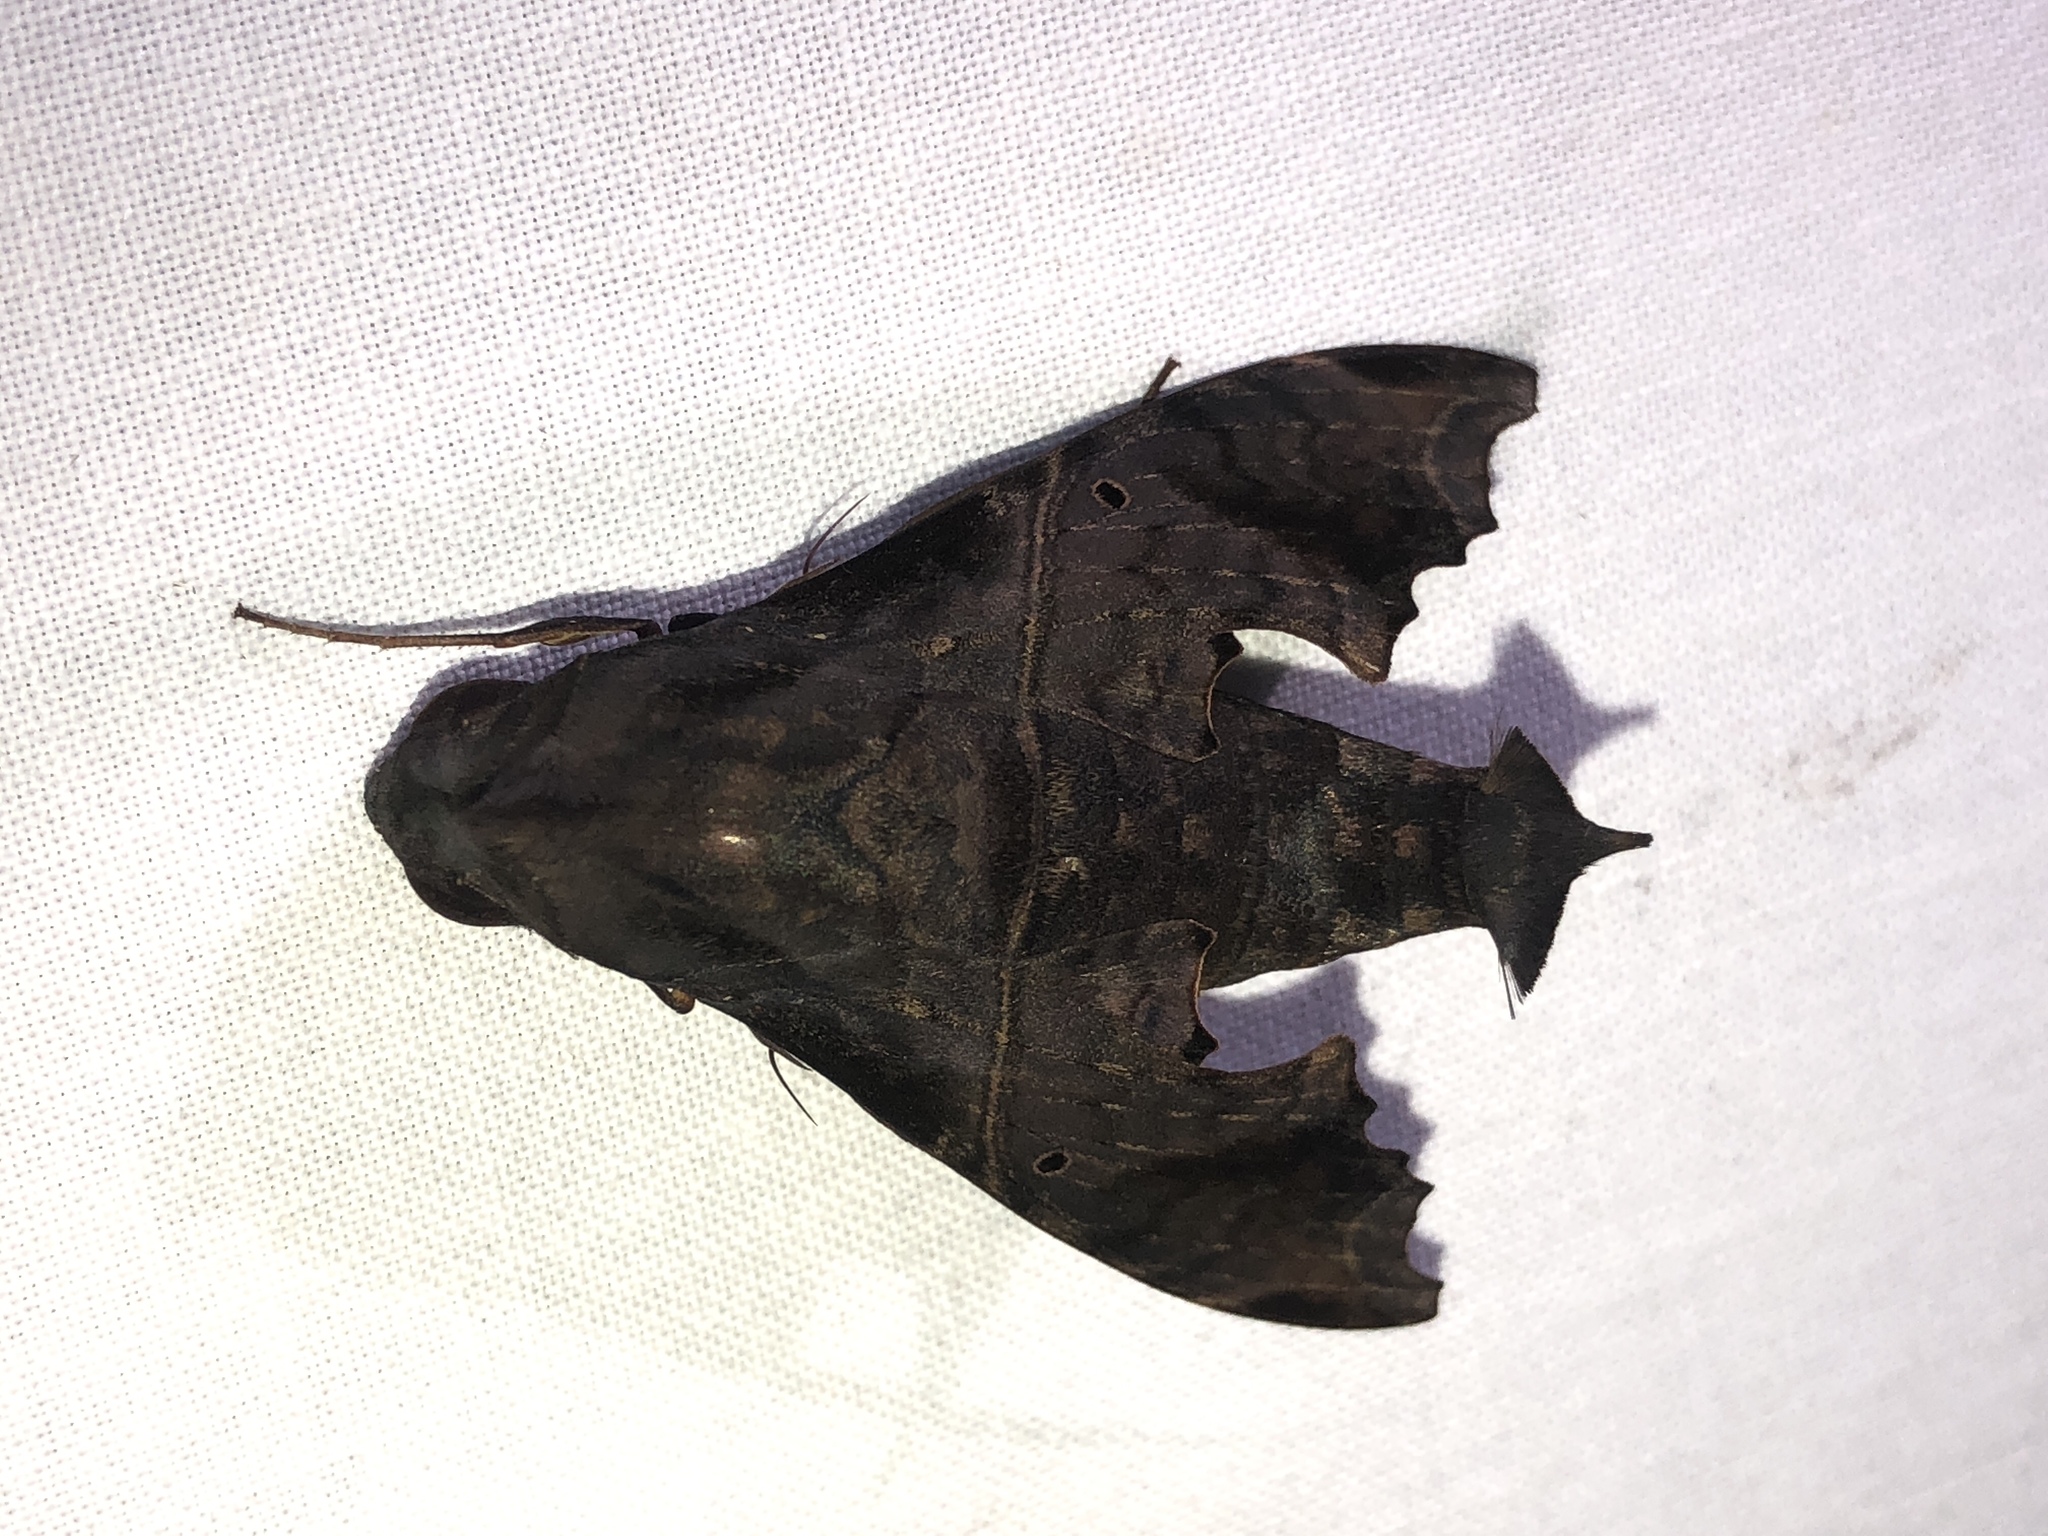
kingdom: Animalia
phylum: Arthropoda
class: Insecta
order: Lepidoptera
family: Sphingidae
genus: Enyo
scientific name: Enyo lugubris
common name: Mournful sphinx
